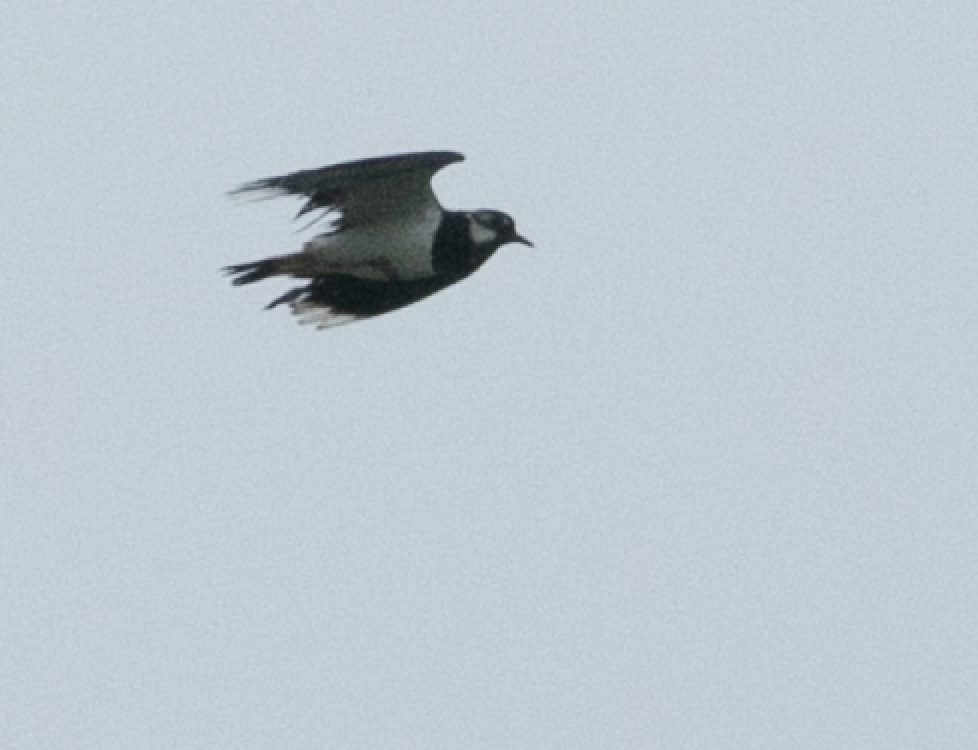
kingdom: Animalia
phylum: Chordata
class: Aves
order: Charadriiformes
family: Charadriidae
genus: Vanellus
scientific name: Vanellus vanellus
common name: Northern lapwing
